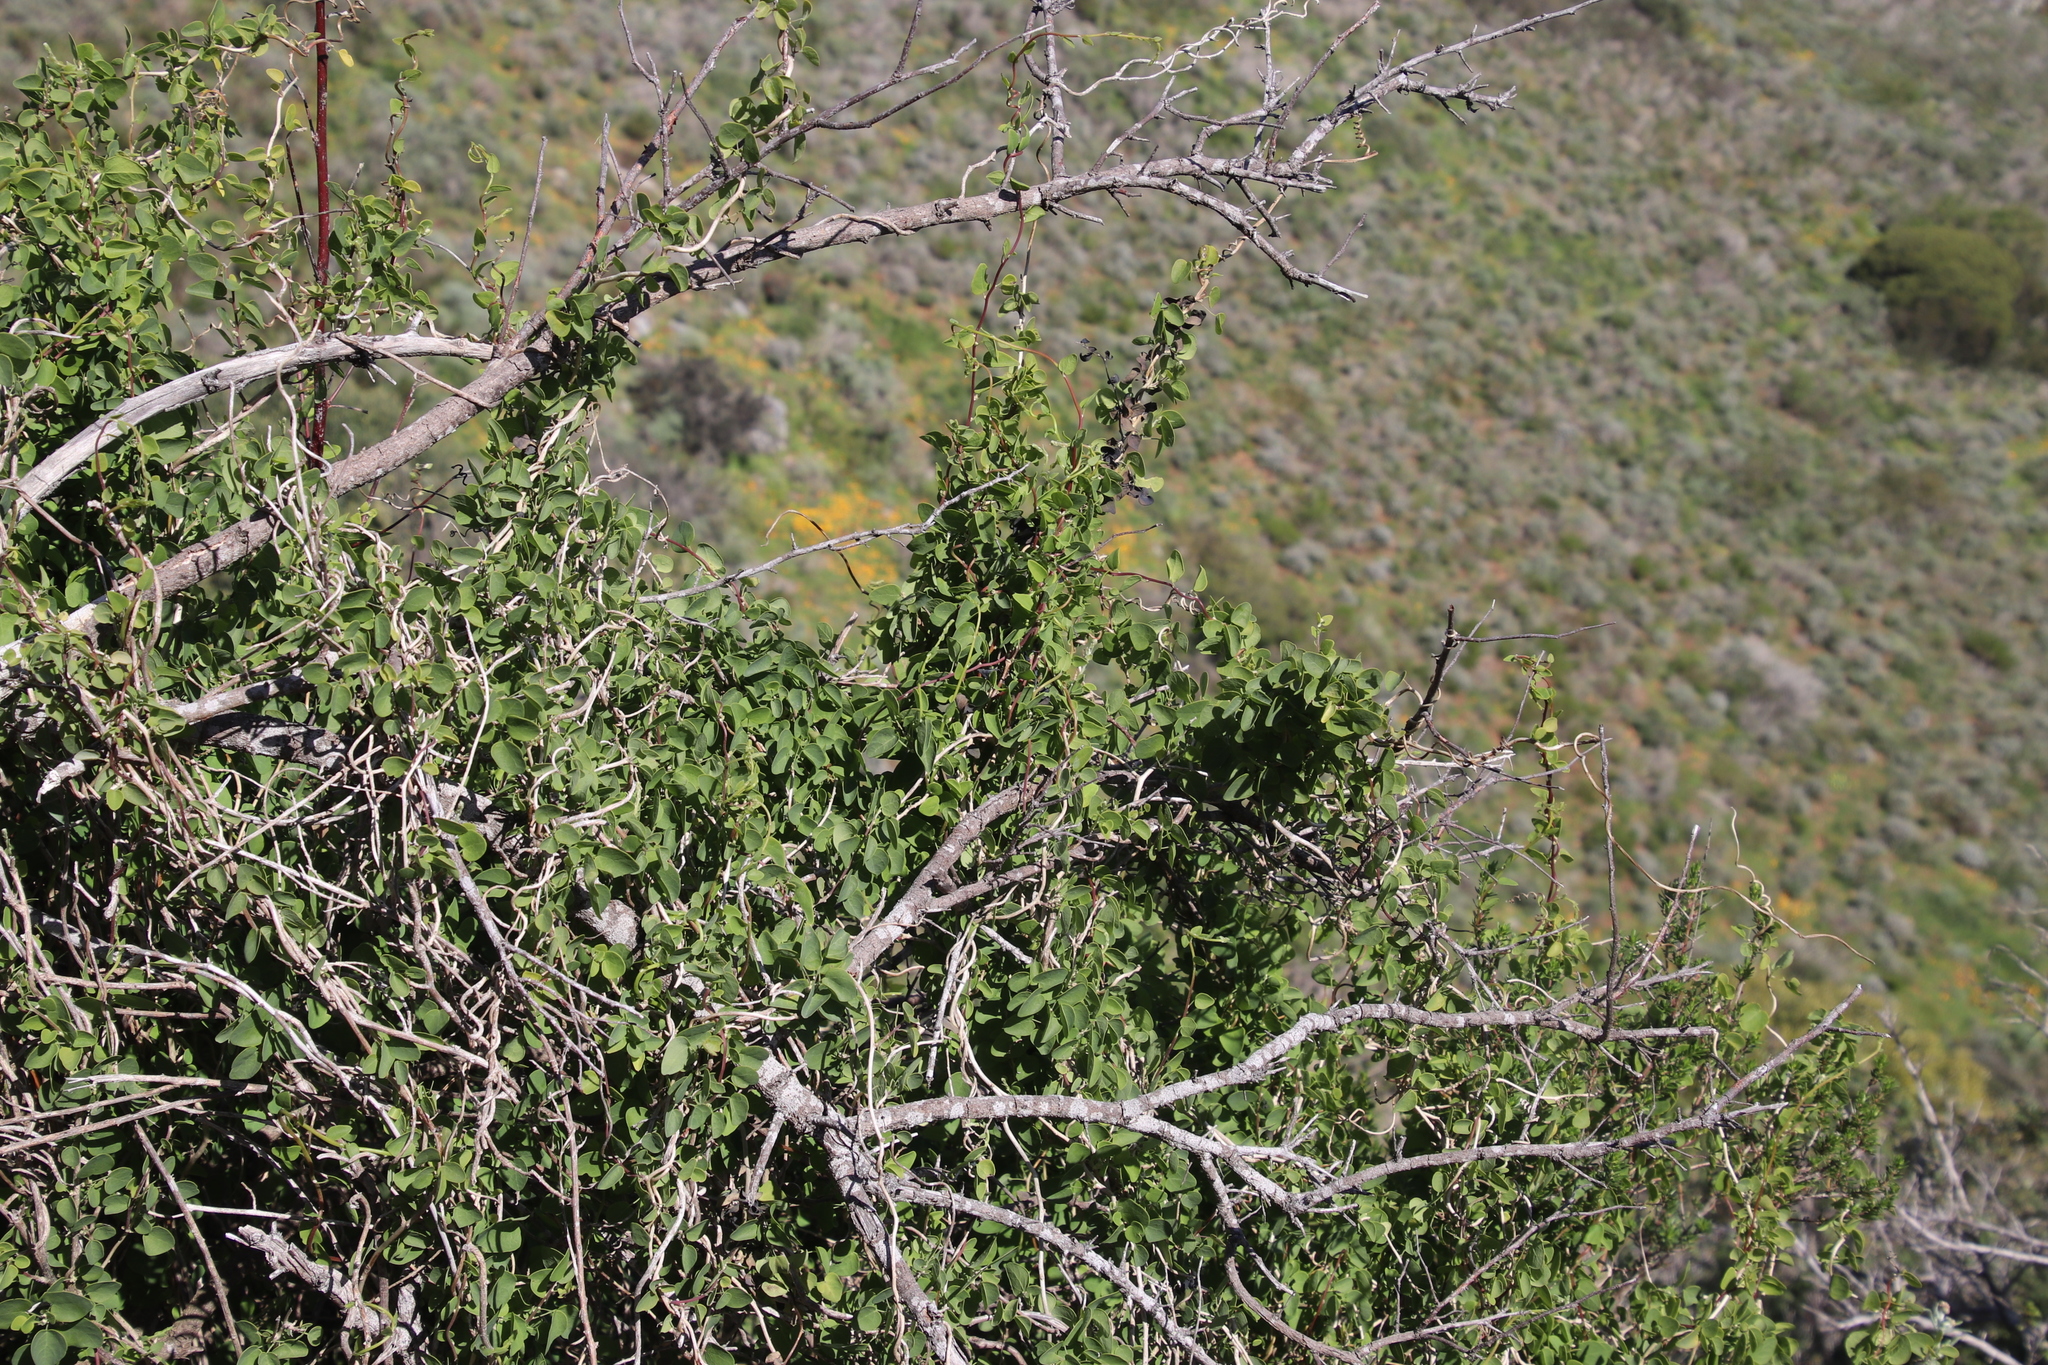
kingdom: Plantae
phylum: Tracheophyta
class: Magnoliopsida
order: Ranunculales
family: Menispermaceae
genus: Cissampelos
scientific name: Cissampelos capensis
